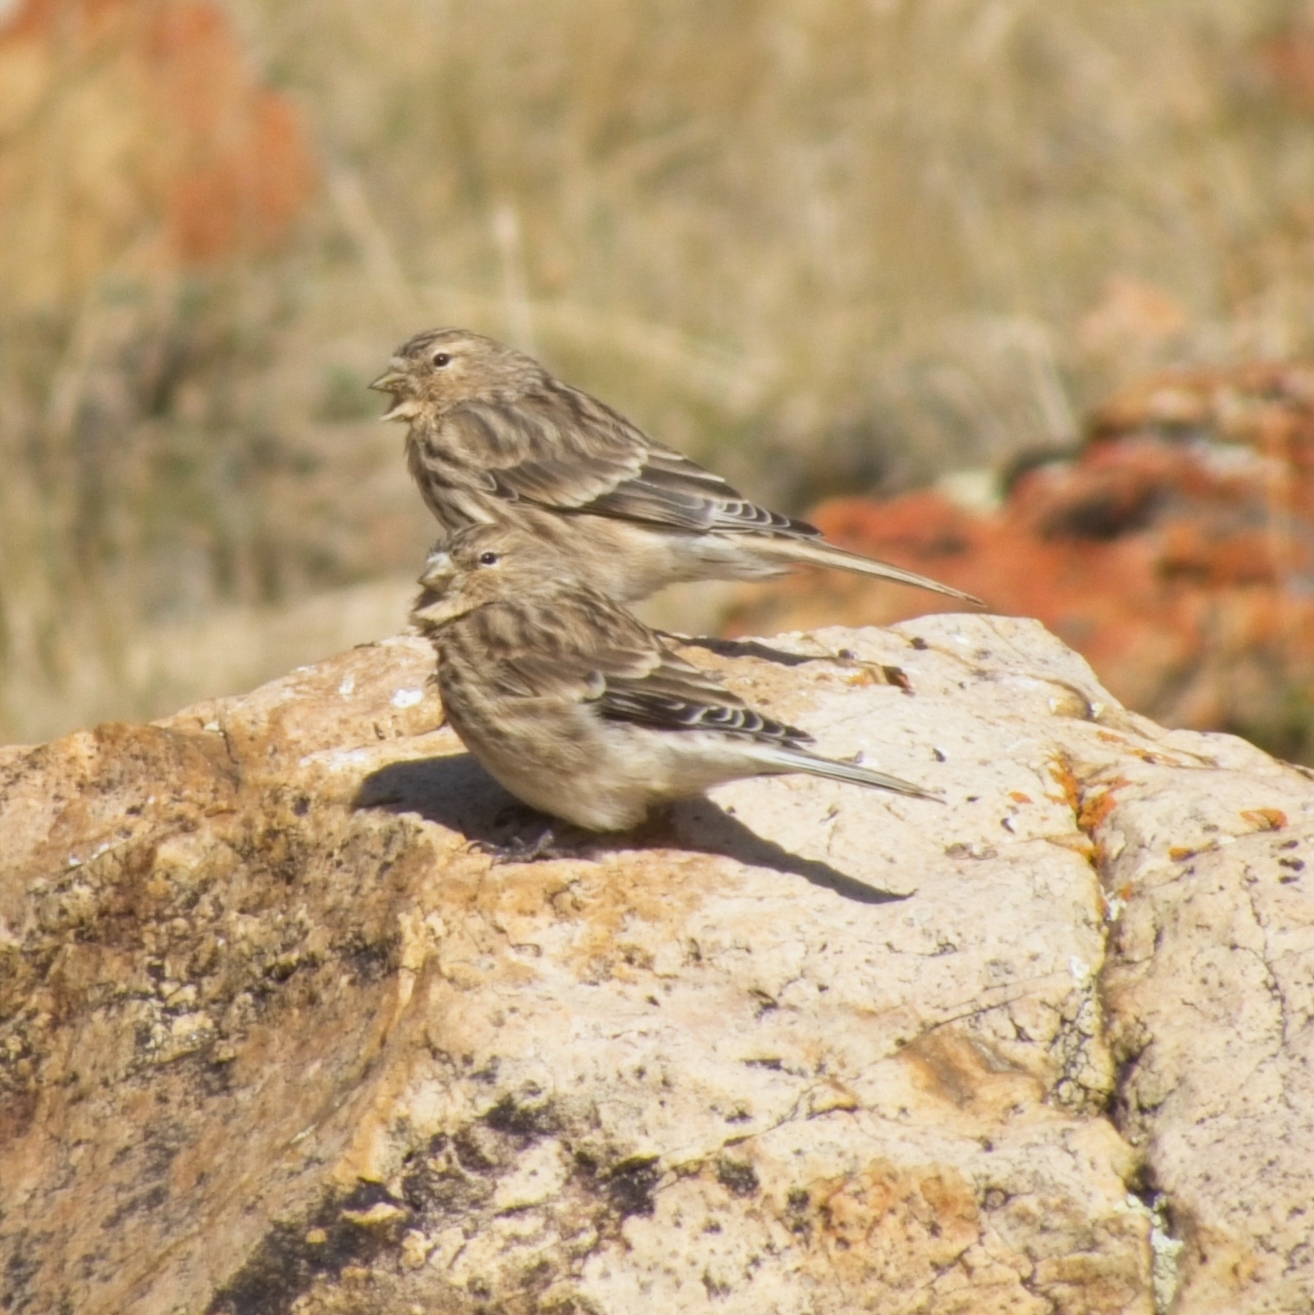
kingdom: Animalia
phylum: Chordata
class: Aves
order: Passeriformes
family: Fringillidae
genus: Linaria
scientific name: Linaria flavirostris
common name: Twite
